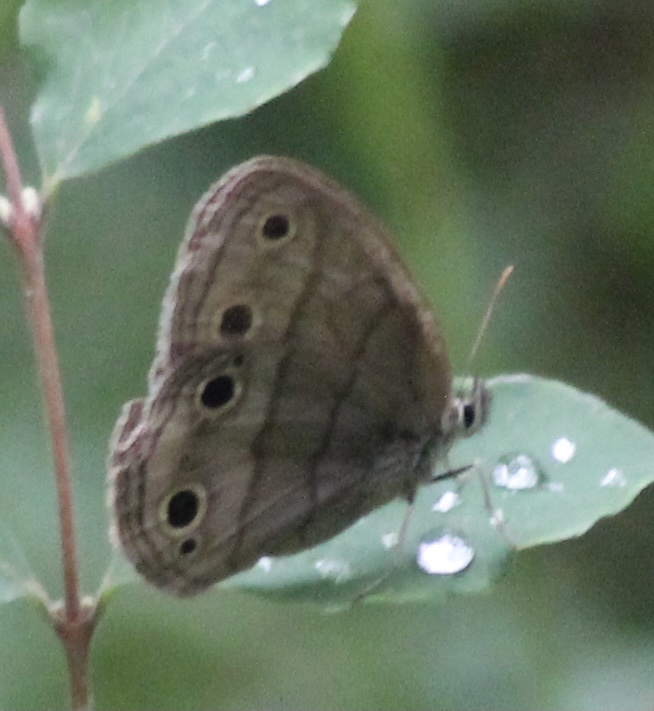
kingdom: Animalia
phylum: Arthropoda
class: Insecta
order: Lepidoptera
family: Nymphalidae
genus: Euptychia
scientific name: Euptychia cymela
